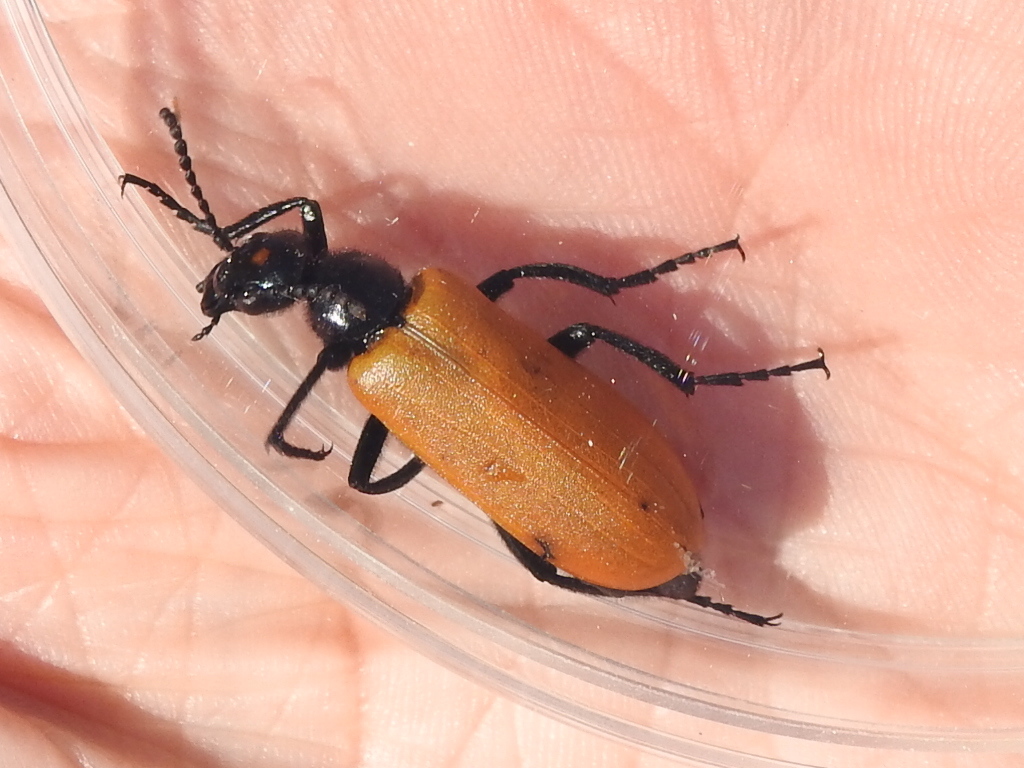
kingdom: Animalia
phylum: Arthropoda
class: Insecta
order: Coleoptera
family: Meloidae
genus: Lytta
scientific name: Lytta fulvipennis
